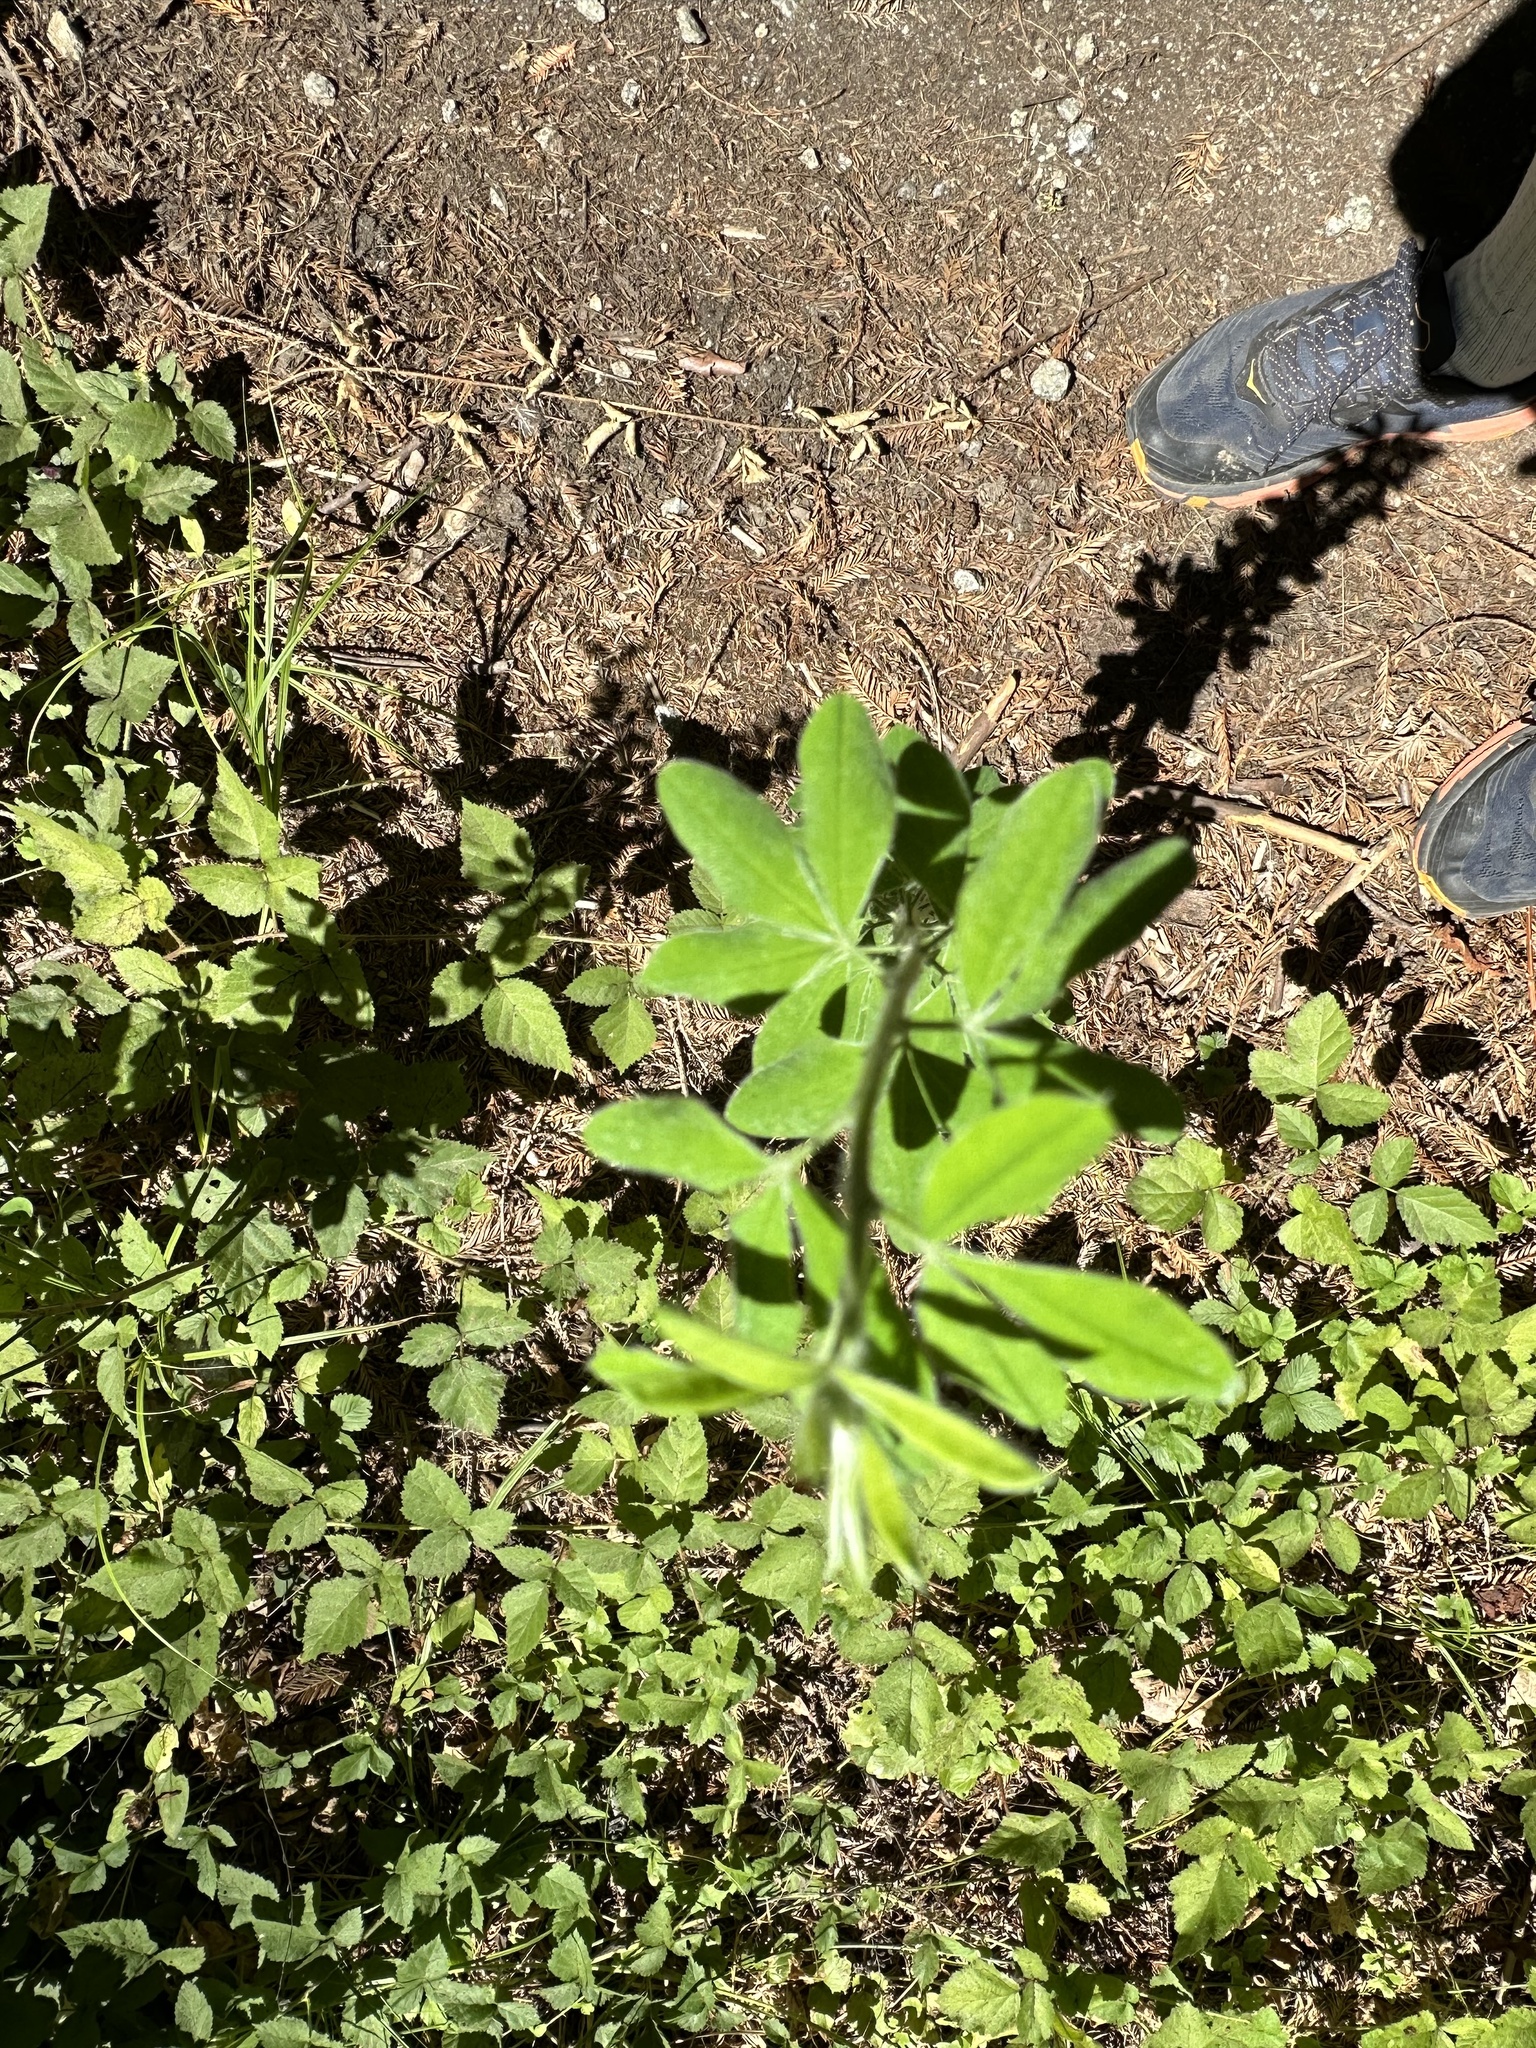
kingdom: Plantae
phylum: Tracheophyta
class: Magnoliopsida
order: Fabales
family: Fabaceae
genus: Genista
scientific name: Genista monspessulana
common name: Montpellier broom
